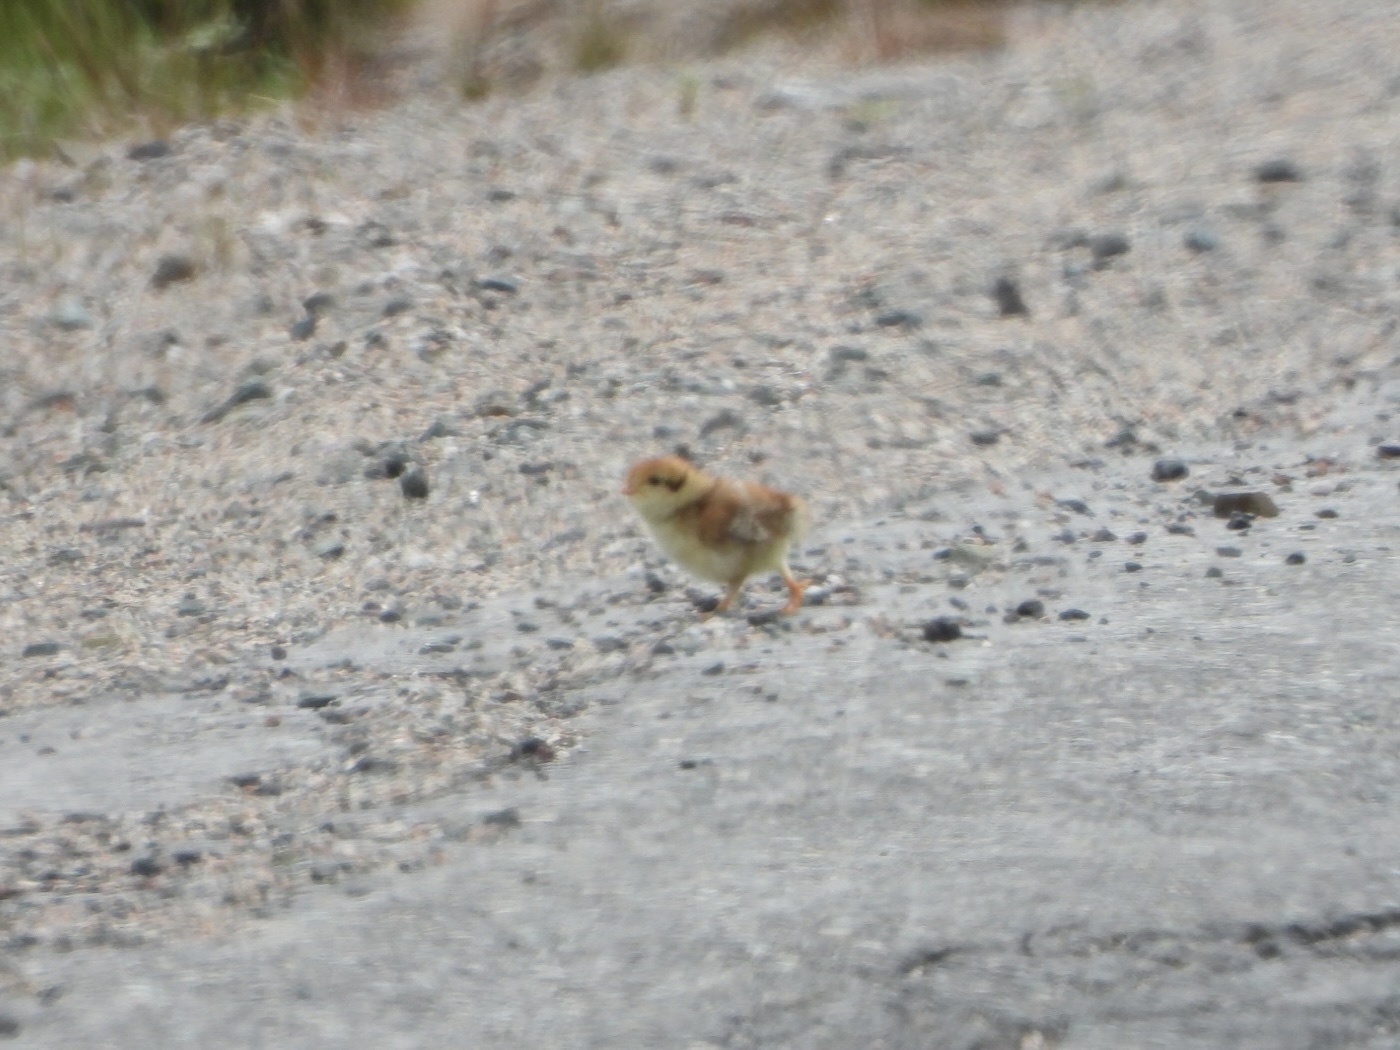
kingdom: Animalia
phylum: Chordata
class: Aves
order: Galliformes
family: Phasianidae
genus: Bonasa
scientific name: Bonasa umbellus
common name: Ruffed grouse
